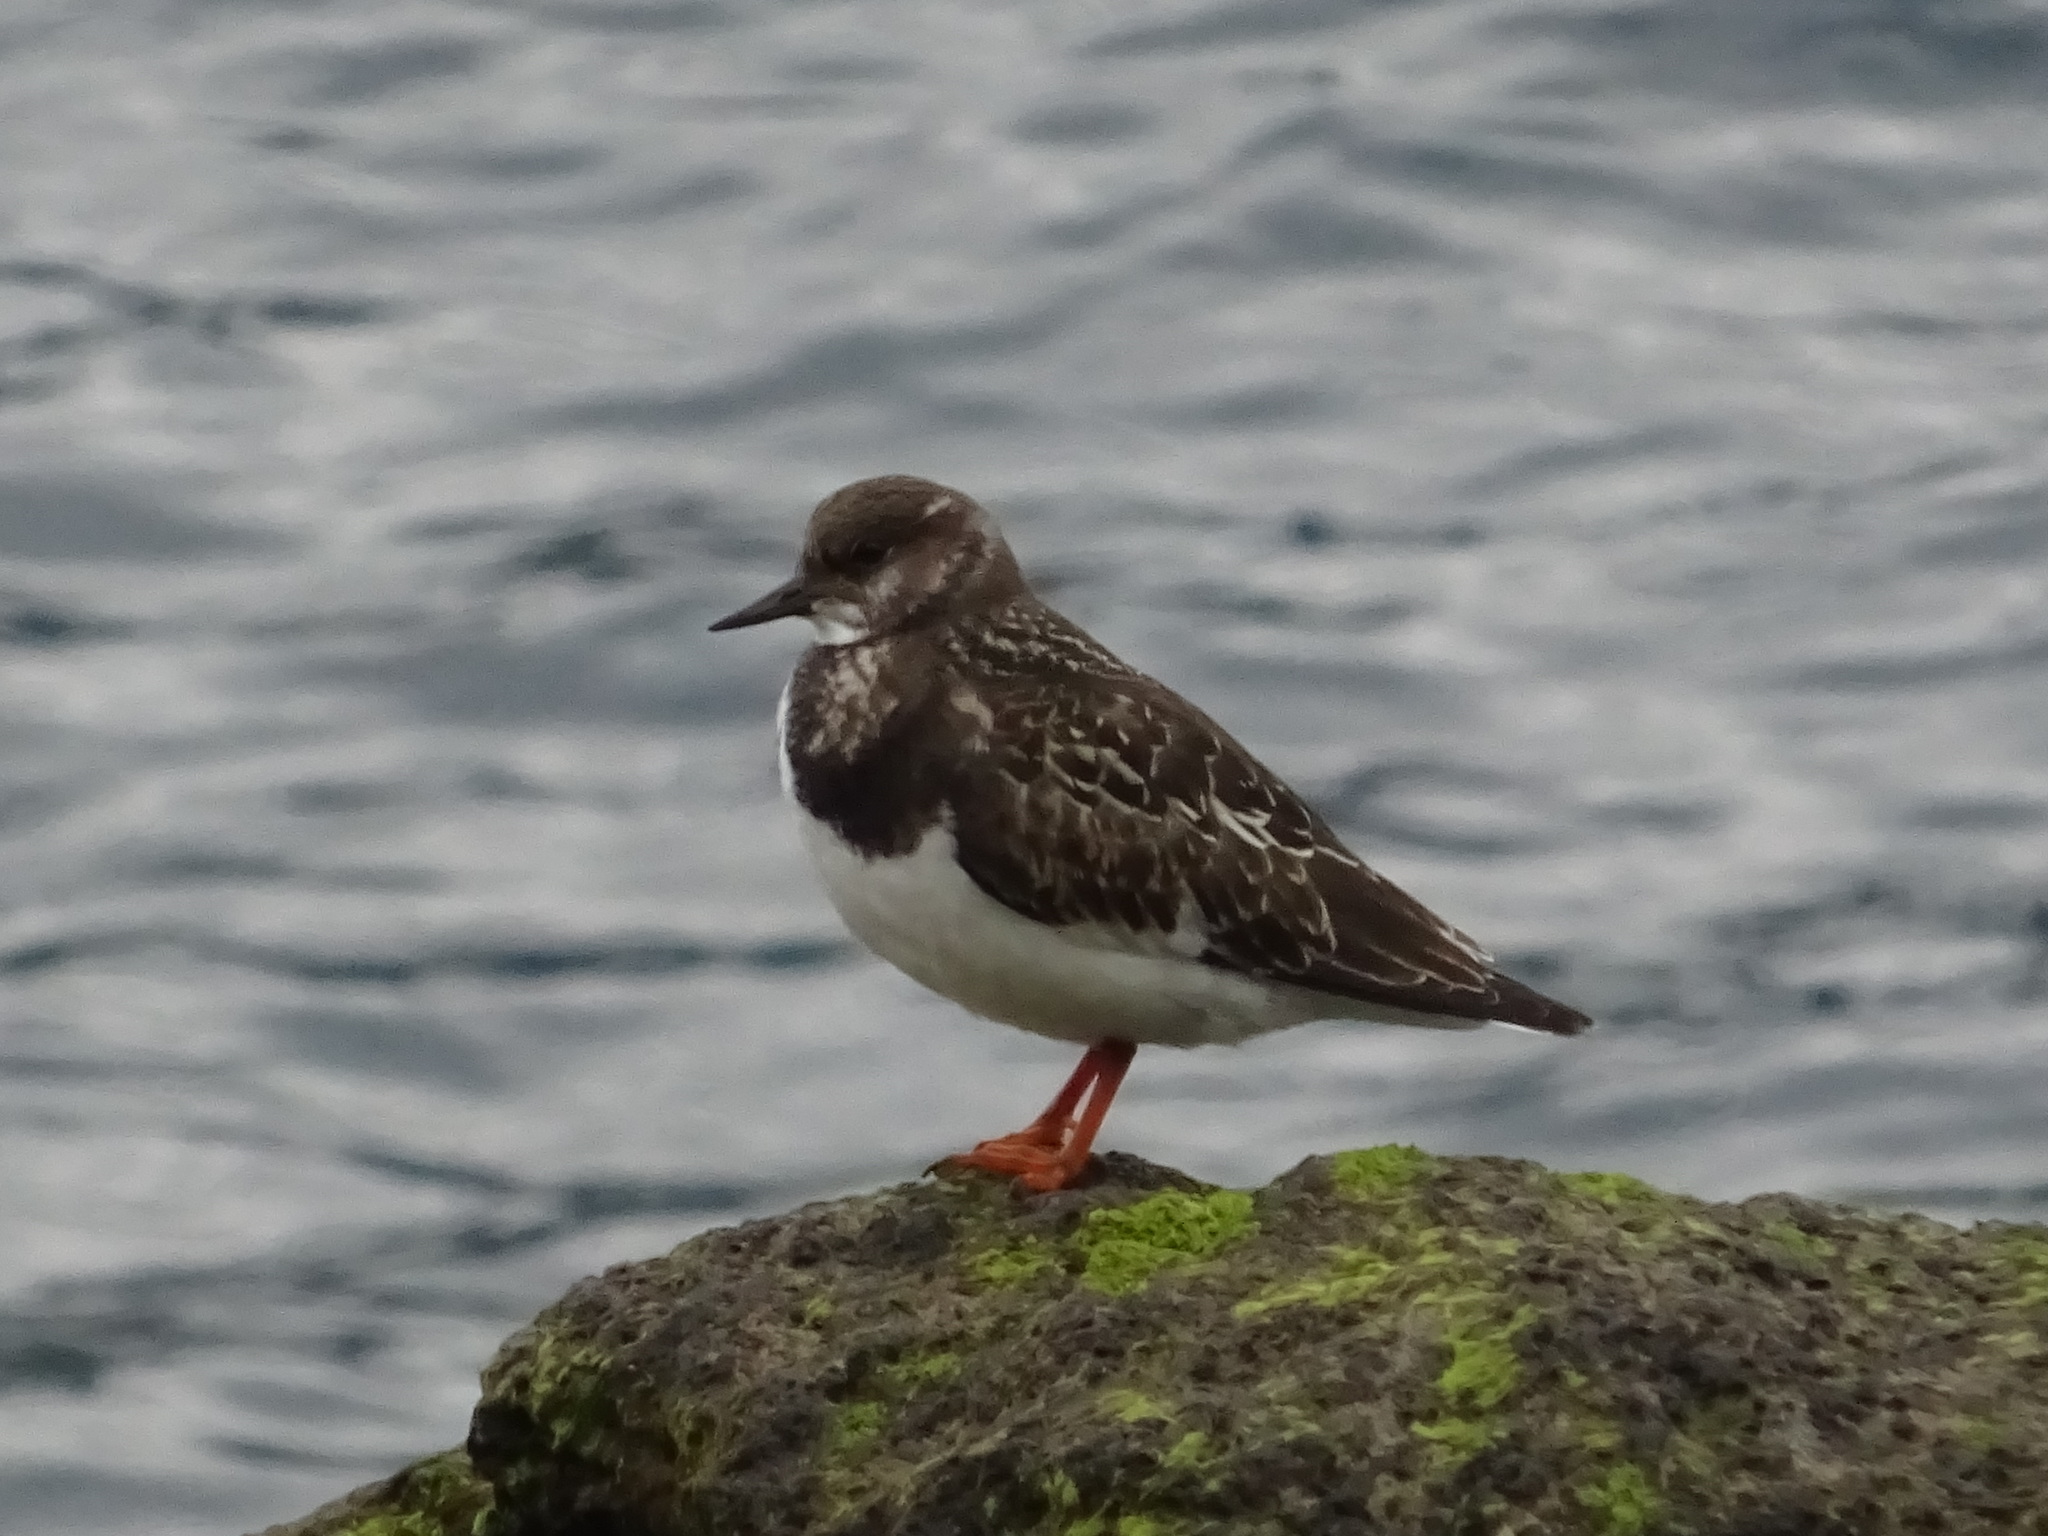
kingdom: Animalia
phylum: Chordata
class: Aves
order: Charadriiformes
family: Scolopacidae
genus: Arenaria
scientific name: Arenaria interpres
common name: Ruddy turnstone
